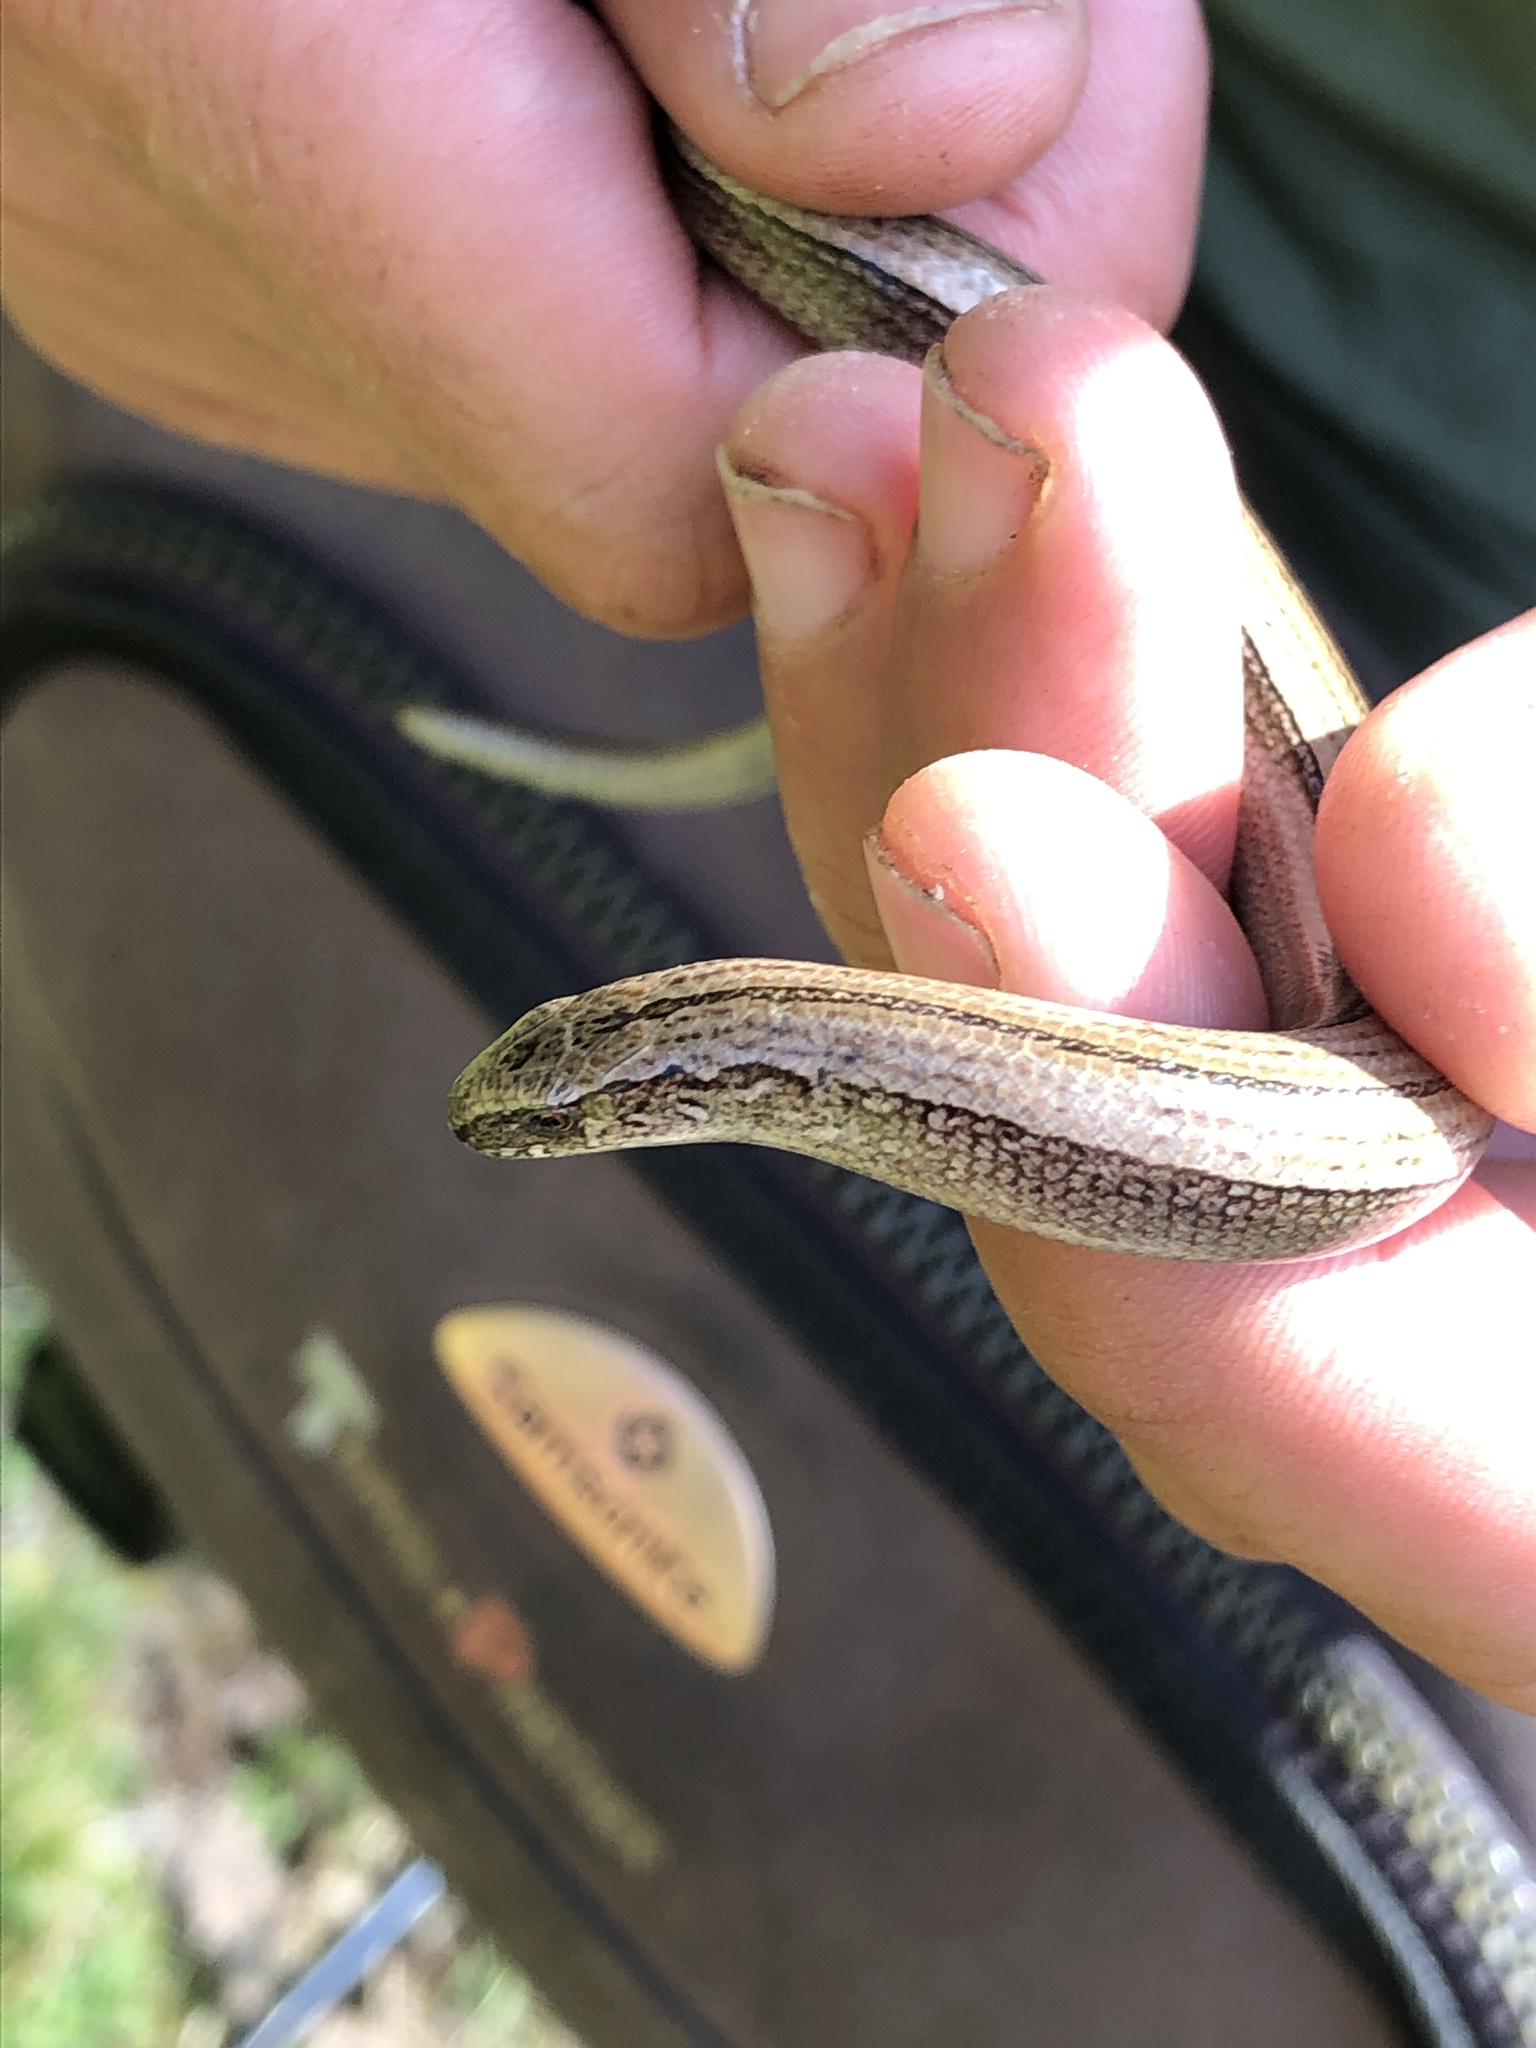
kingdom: Animalia
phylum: Chordata
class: Squamata
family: Anguidae
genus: Anguis
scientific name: Anguis veronensis
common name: Italian slow worm
